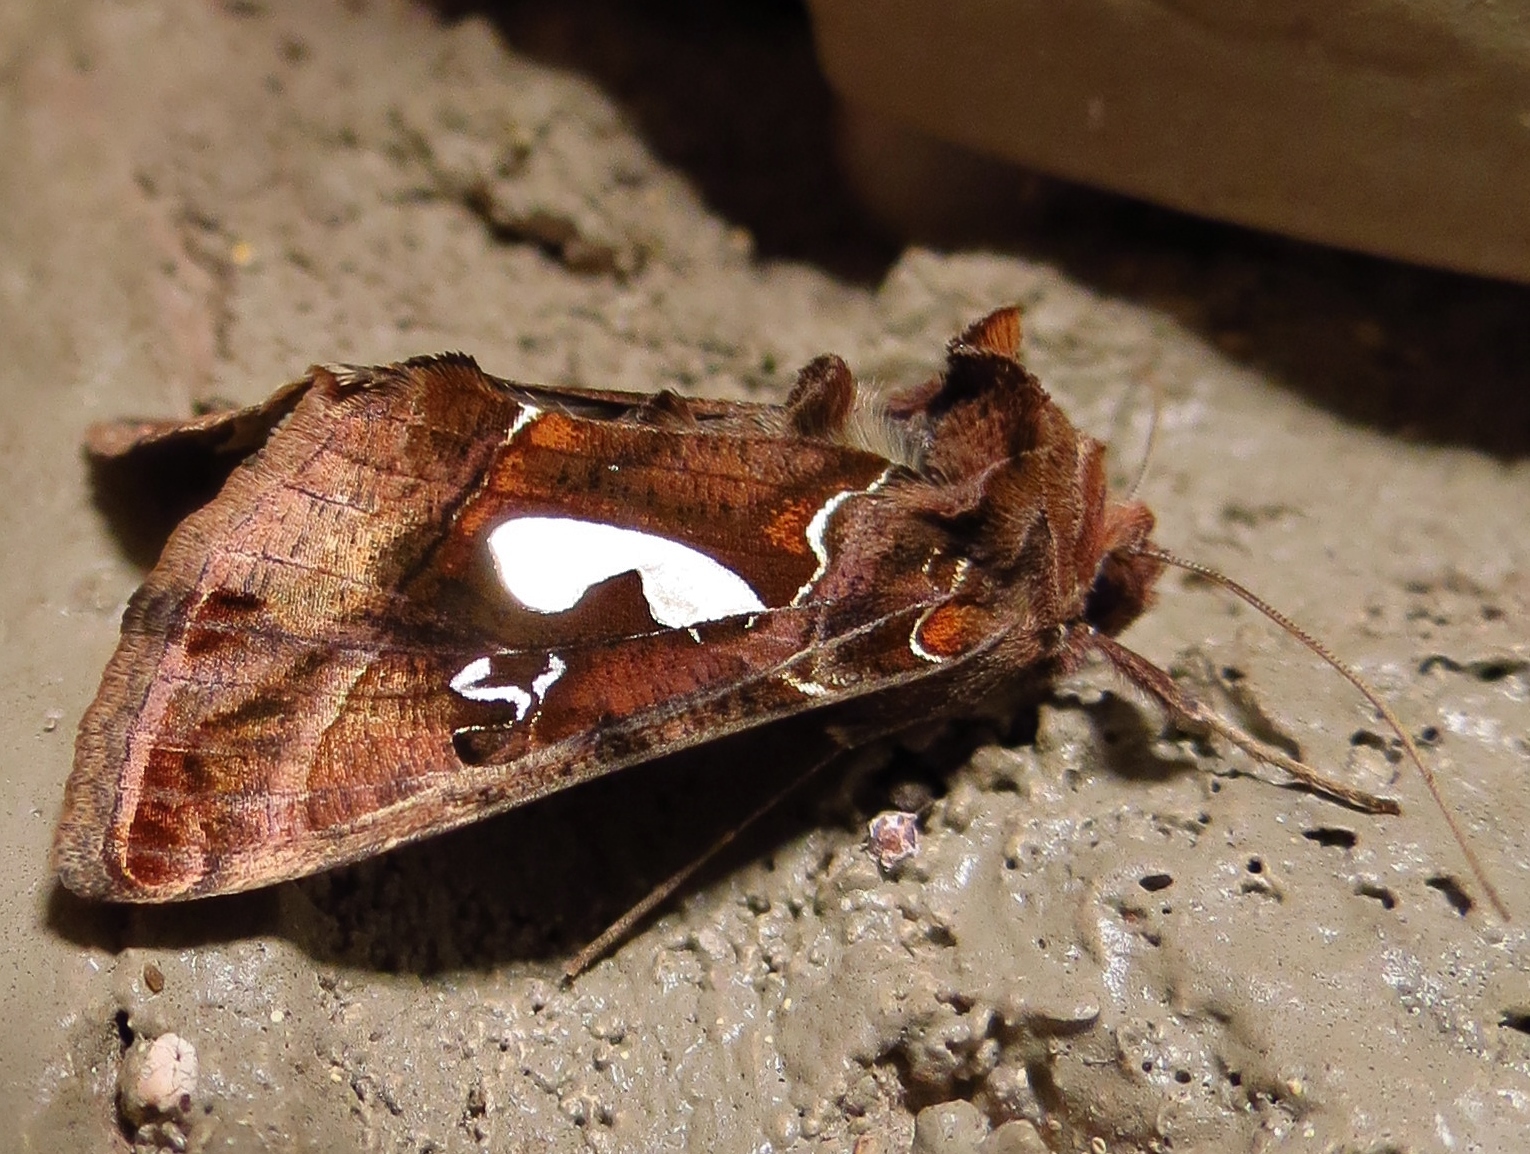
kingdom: Animalia
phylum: Arthropoda
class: Insecta
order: Lepidoptera
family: Noctuidae
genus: Megalographa
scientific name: Megalographa biloba
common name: Cutworm
